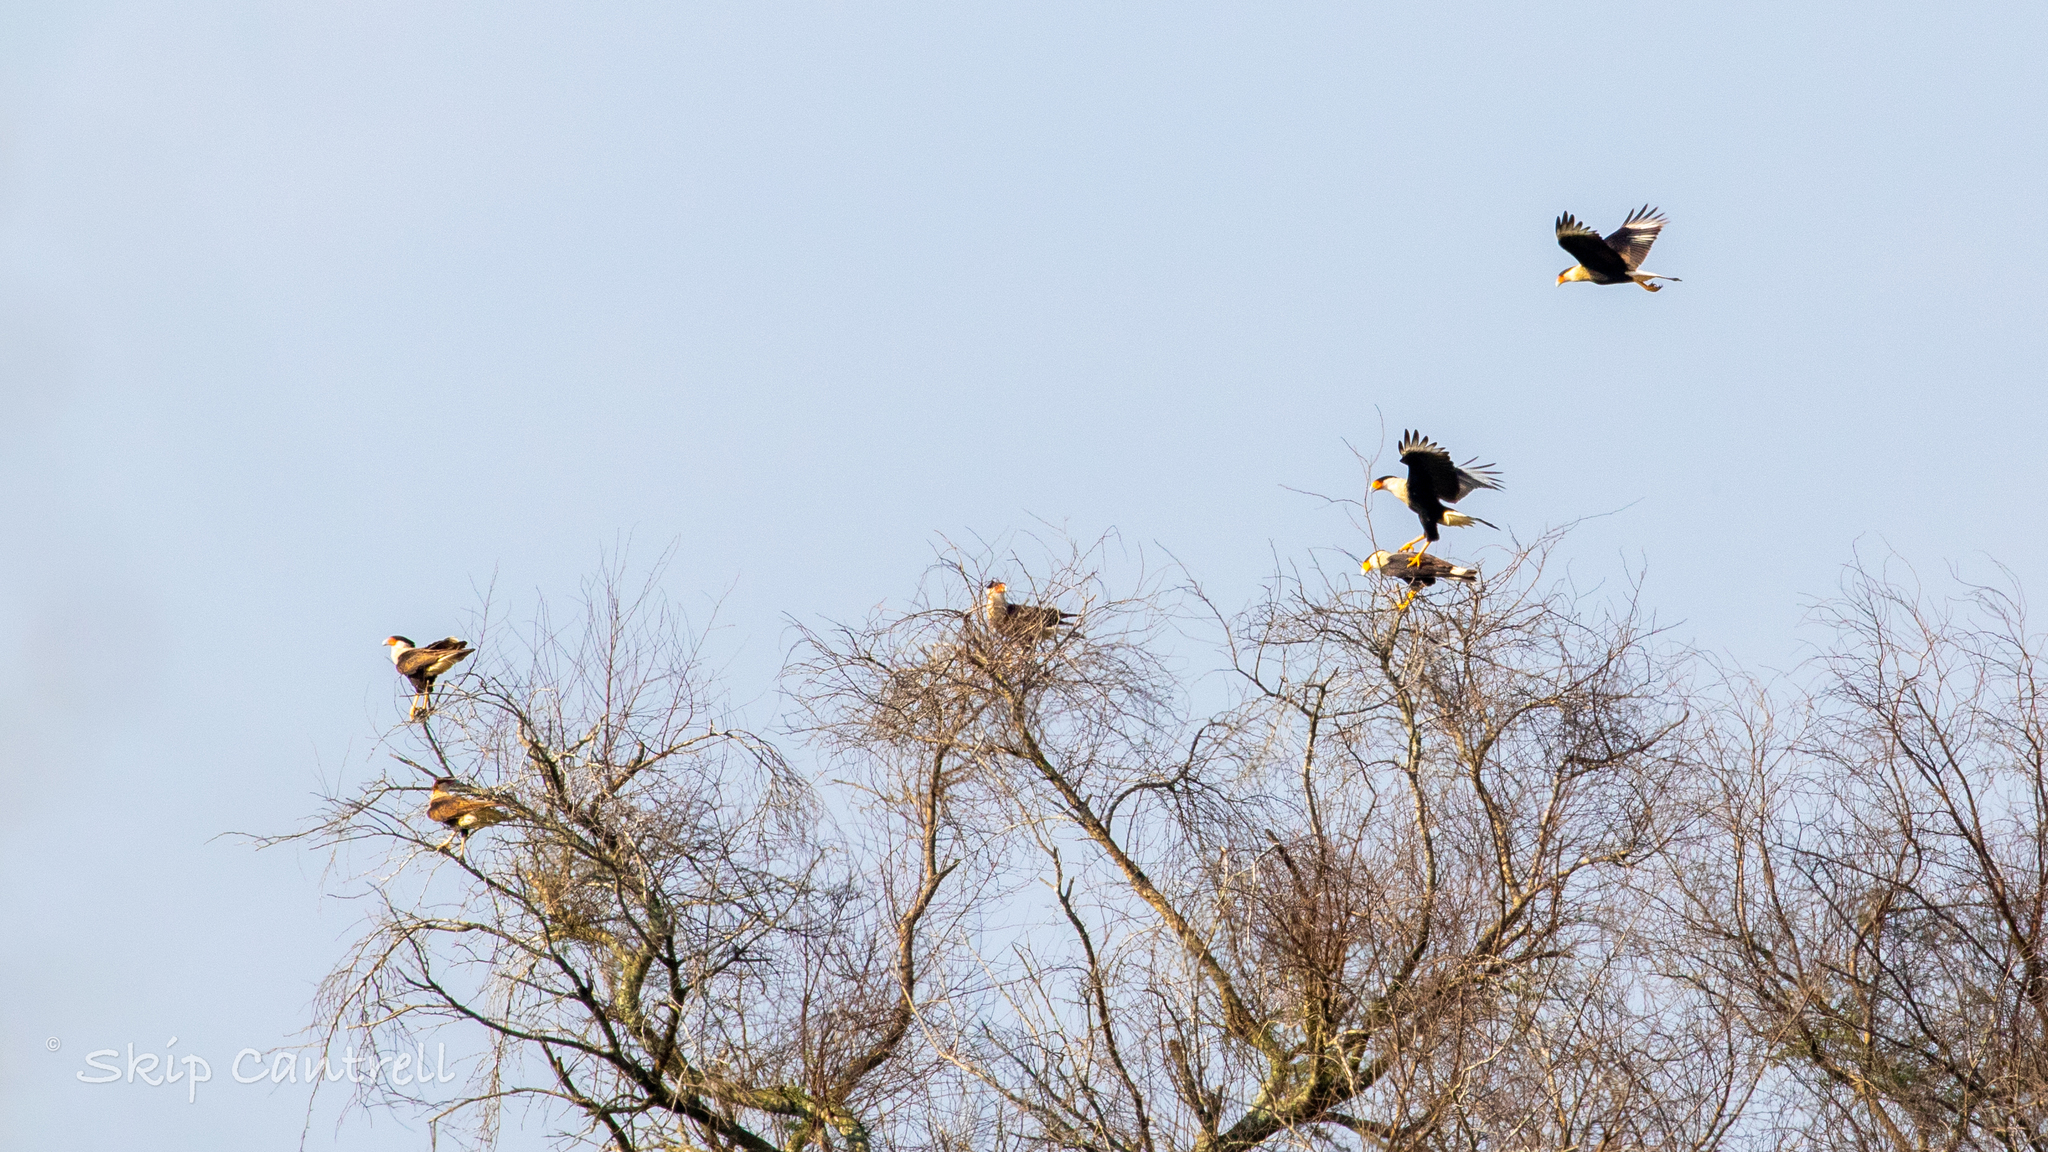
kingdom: Animalia
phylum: Chordata
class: Aves
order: Falconiformes
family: Falconidae
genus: Caracara
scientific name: Caracara plancus
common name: Southern caracara
